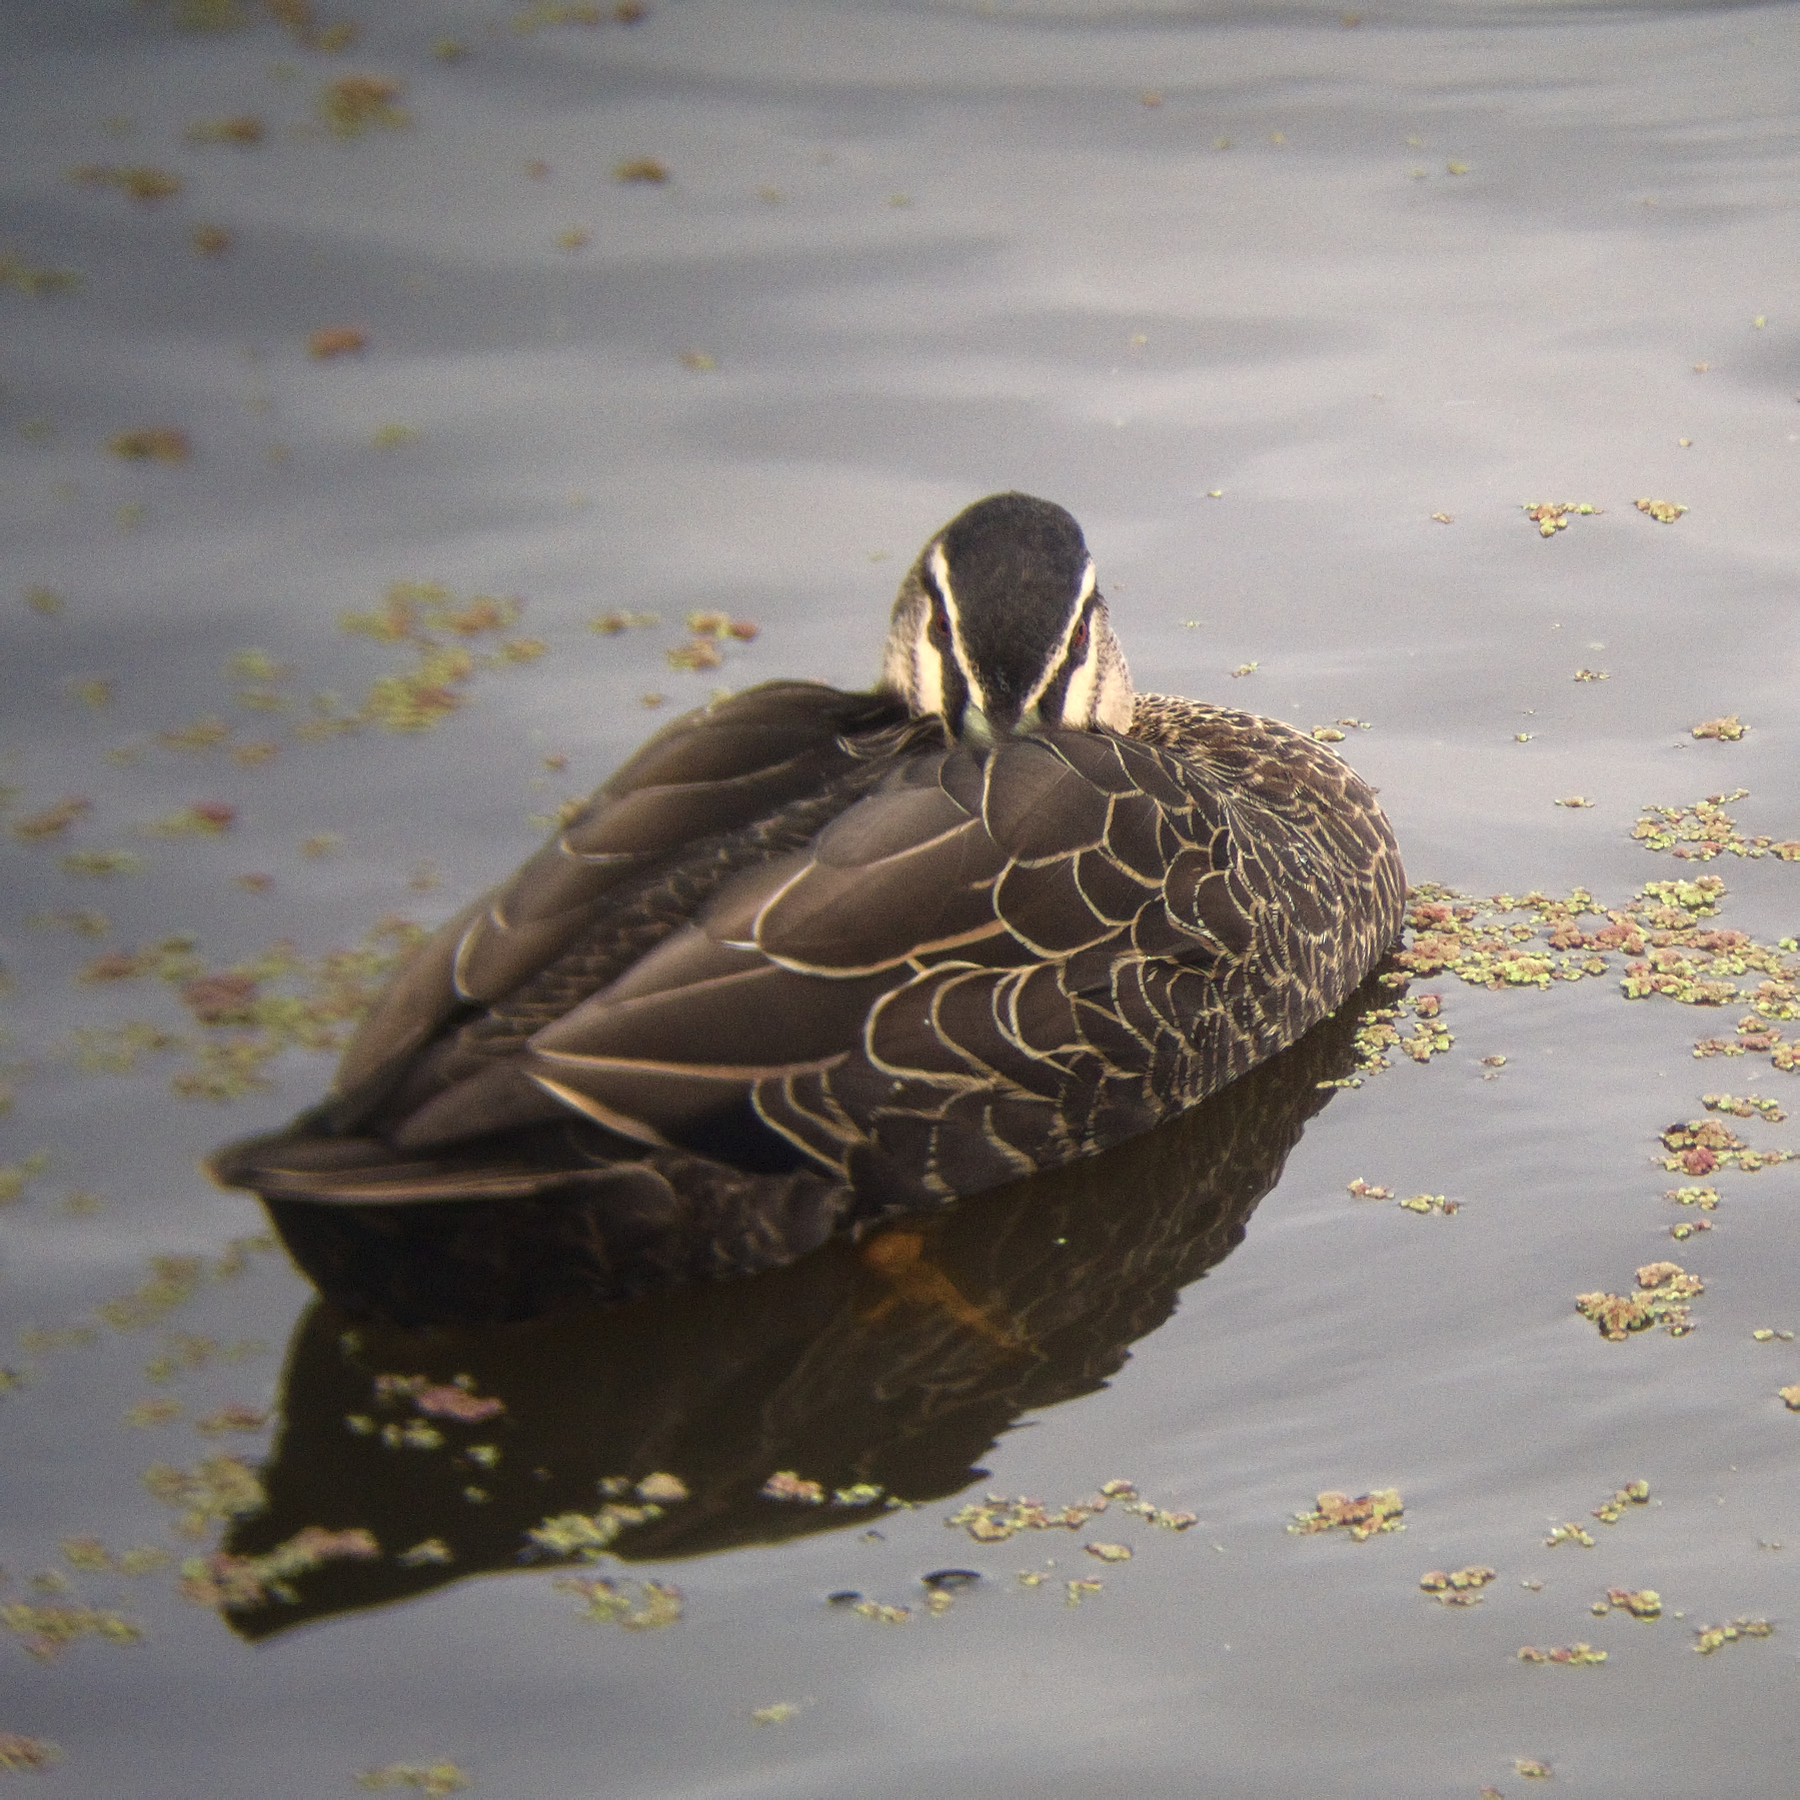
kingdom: Animalia
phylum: Chordata
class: Aves
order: Anseriformes
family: Anatidae
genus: Anas
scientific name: Anas superciliosa
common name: Pacific black duck
